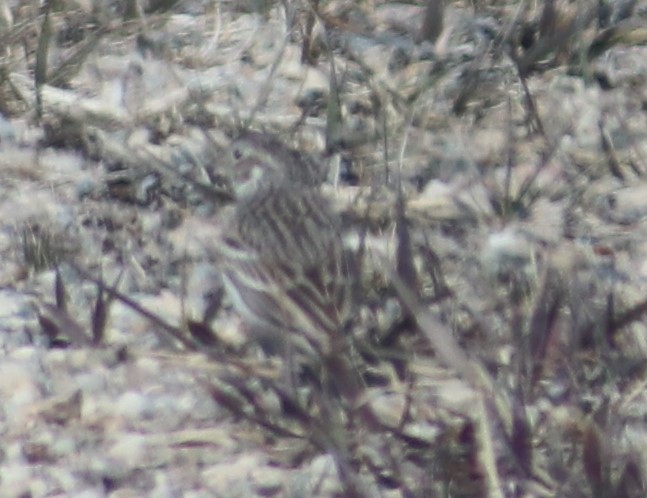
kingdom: Animalia
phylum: Chordata
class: Aves
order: Passeriformes
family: Passerellidae
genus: Pooecetes
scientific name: Pooecetes gramineus
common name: Vesper sparrow
